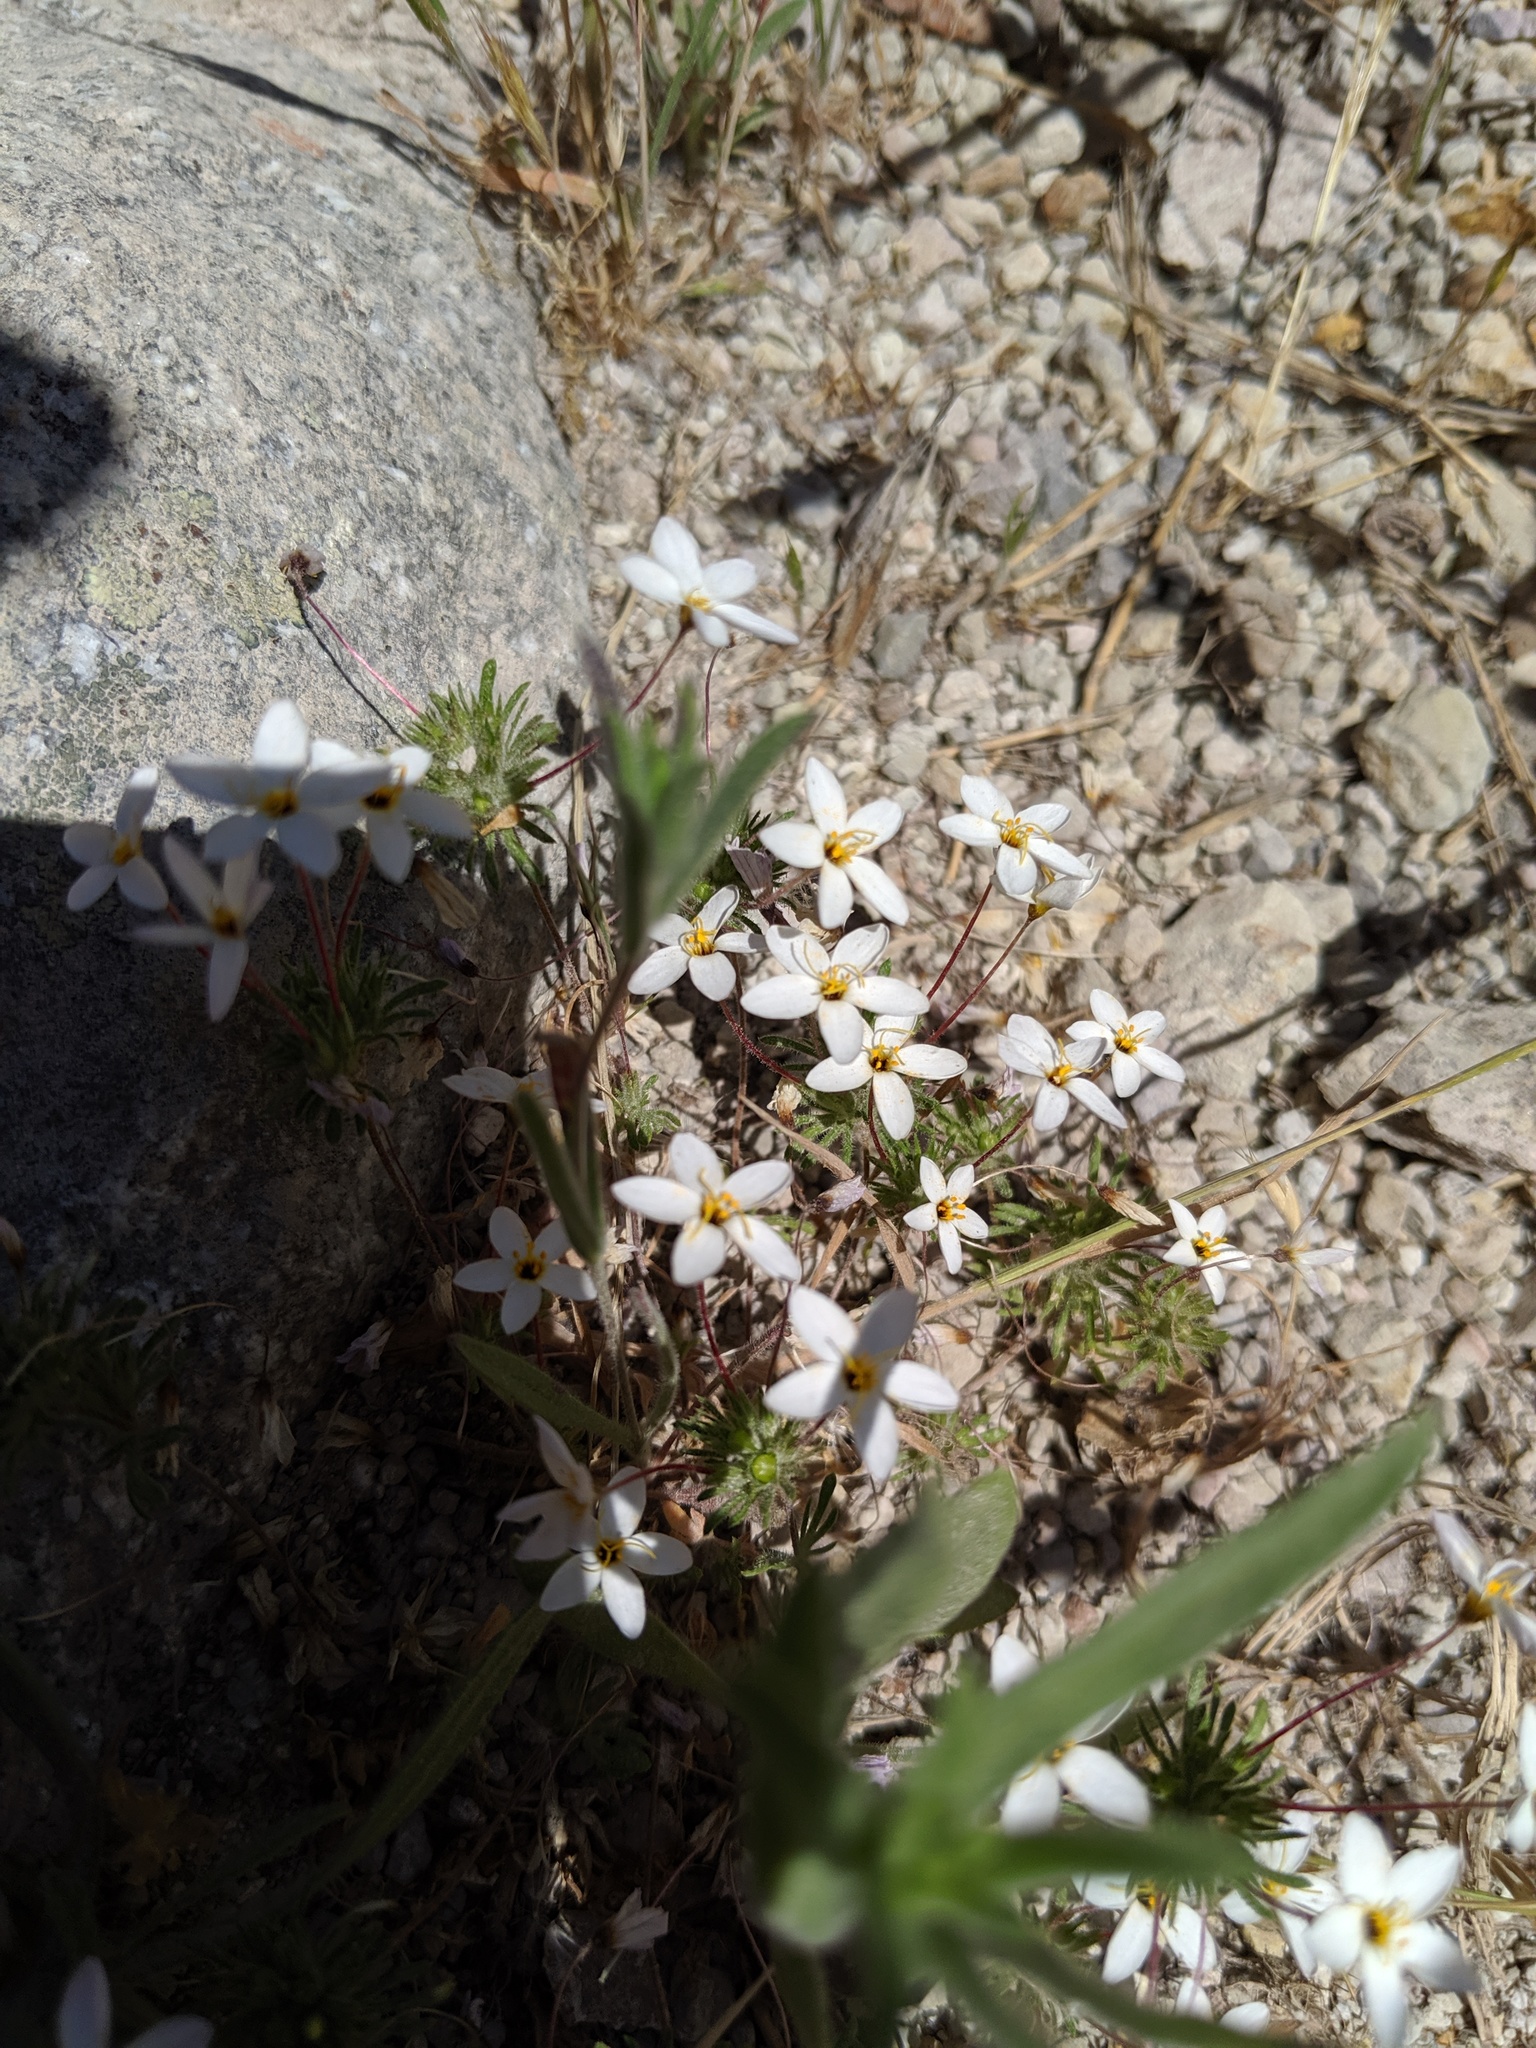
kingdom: Plantae
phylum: Tracheophyta
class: Magnoliopsida
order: Ericales
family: Polemoniaceae
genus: Leptosiphon
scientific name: Leptosiphon parviflorus
